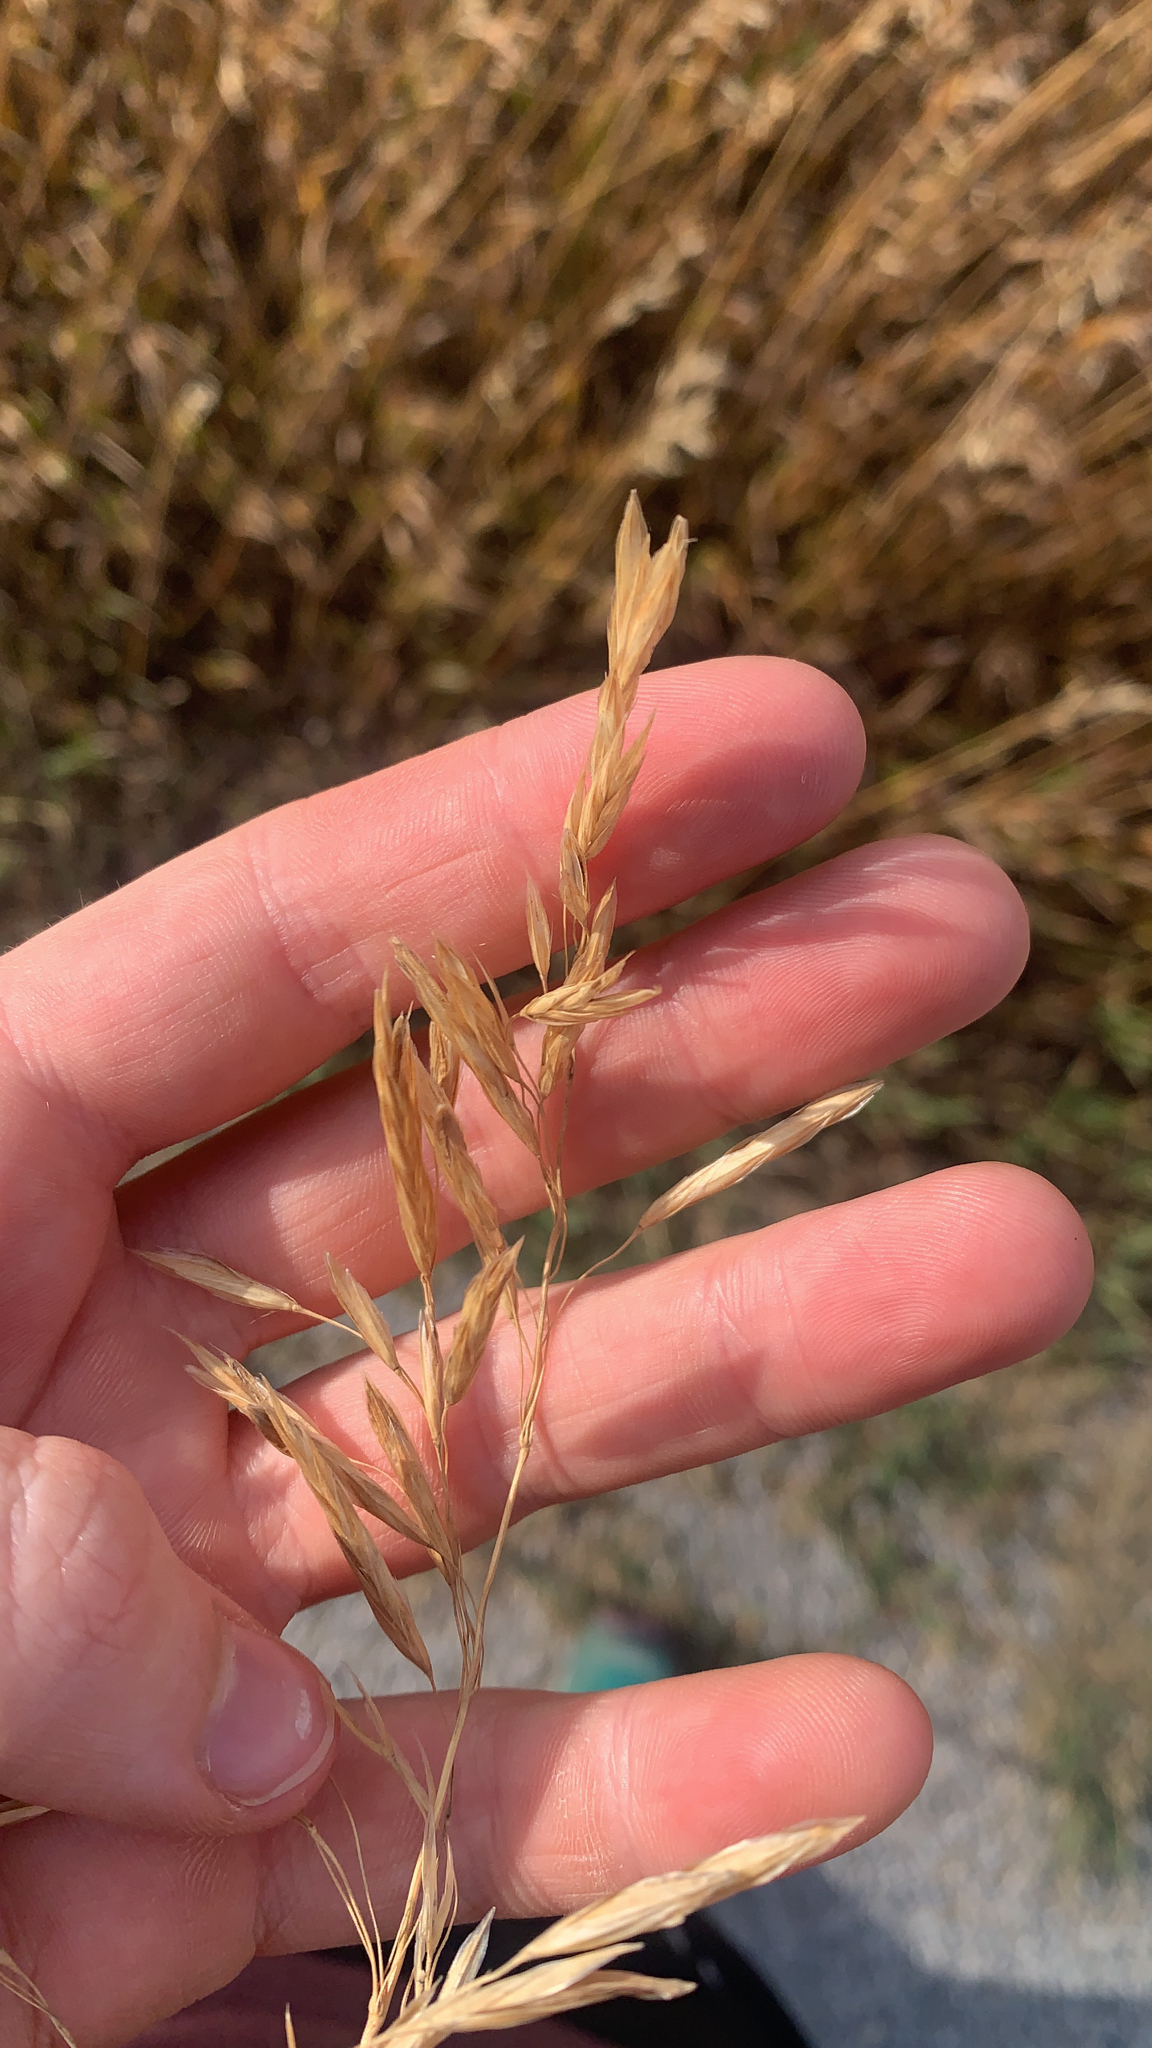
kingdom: Plantae
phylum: Tracheophyta
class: Liliopsida
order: Poales
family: Poaceae
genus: Bromus
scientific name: Bromus inermis
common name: Smooth brome
